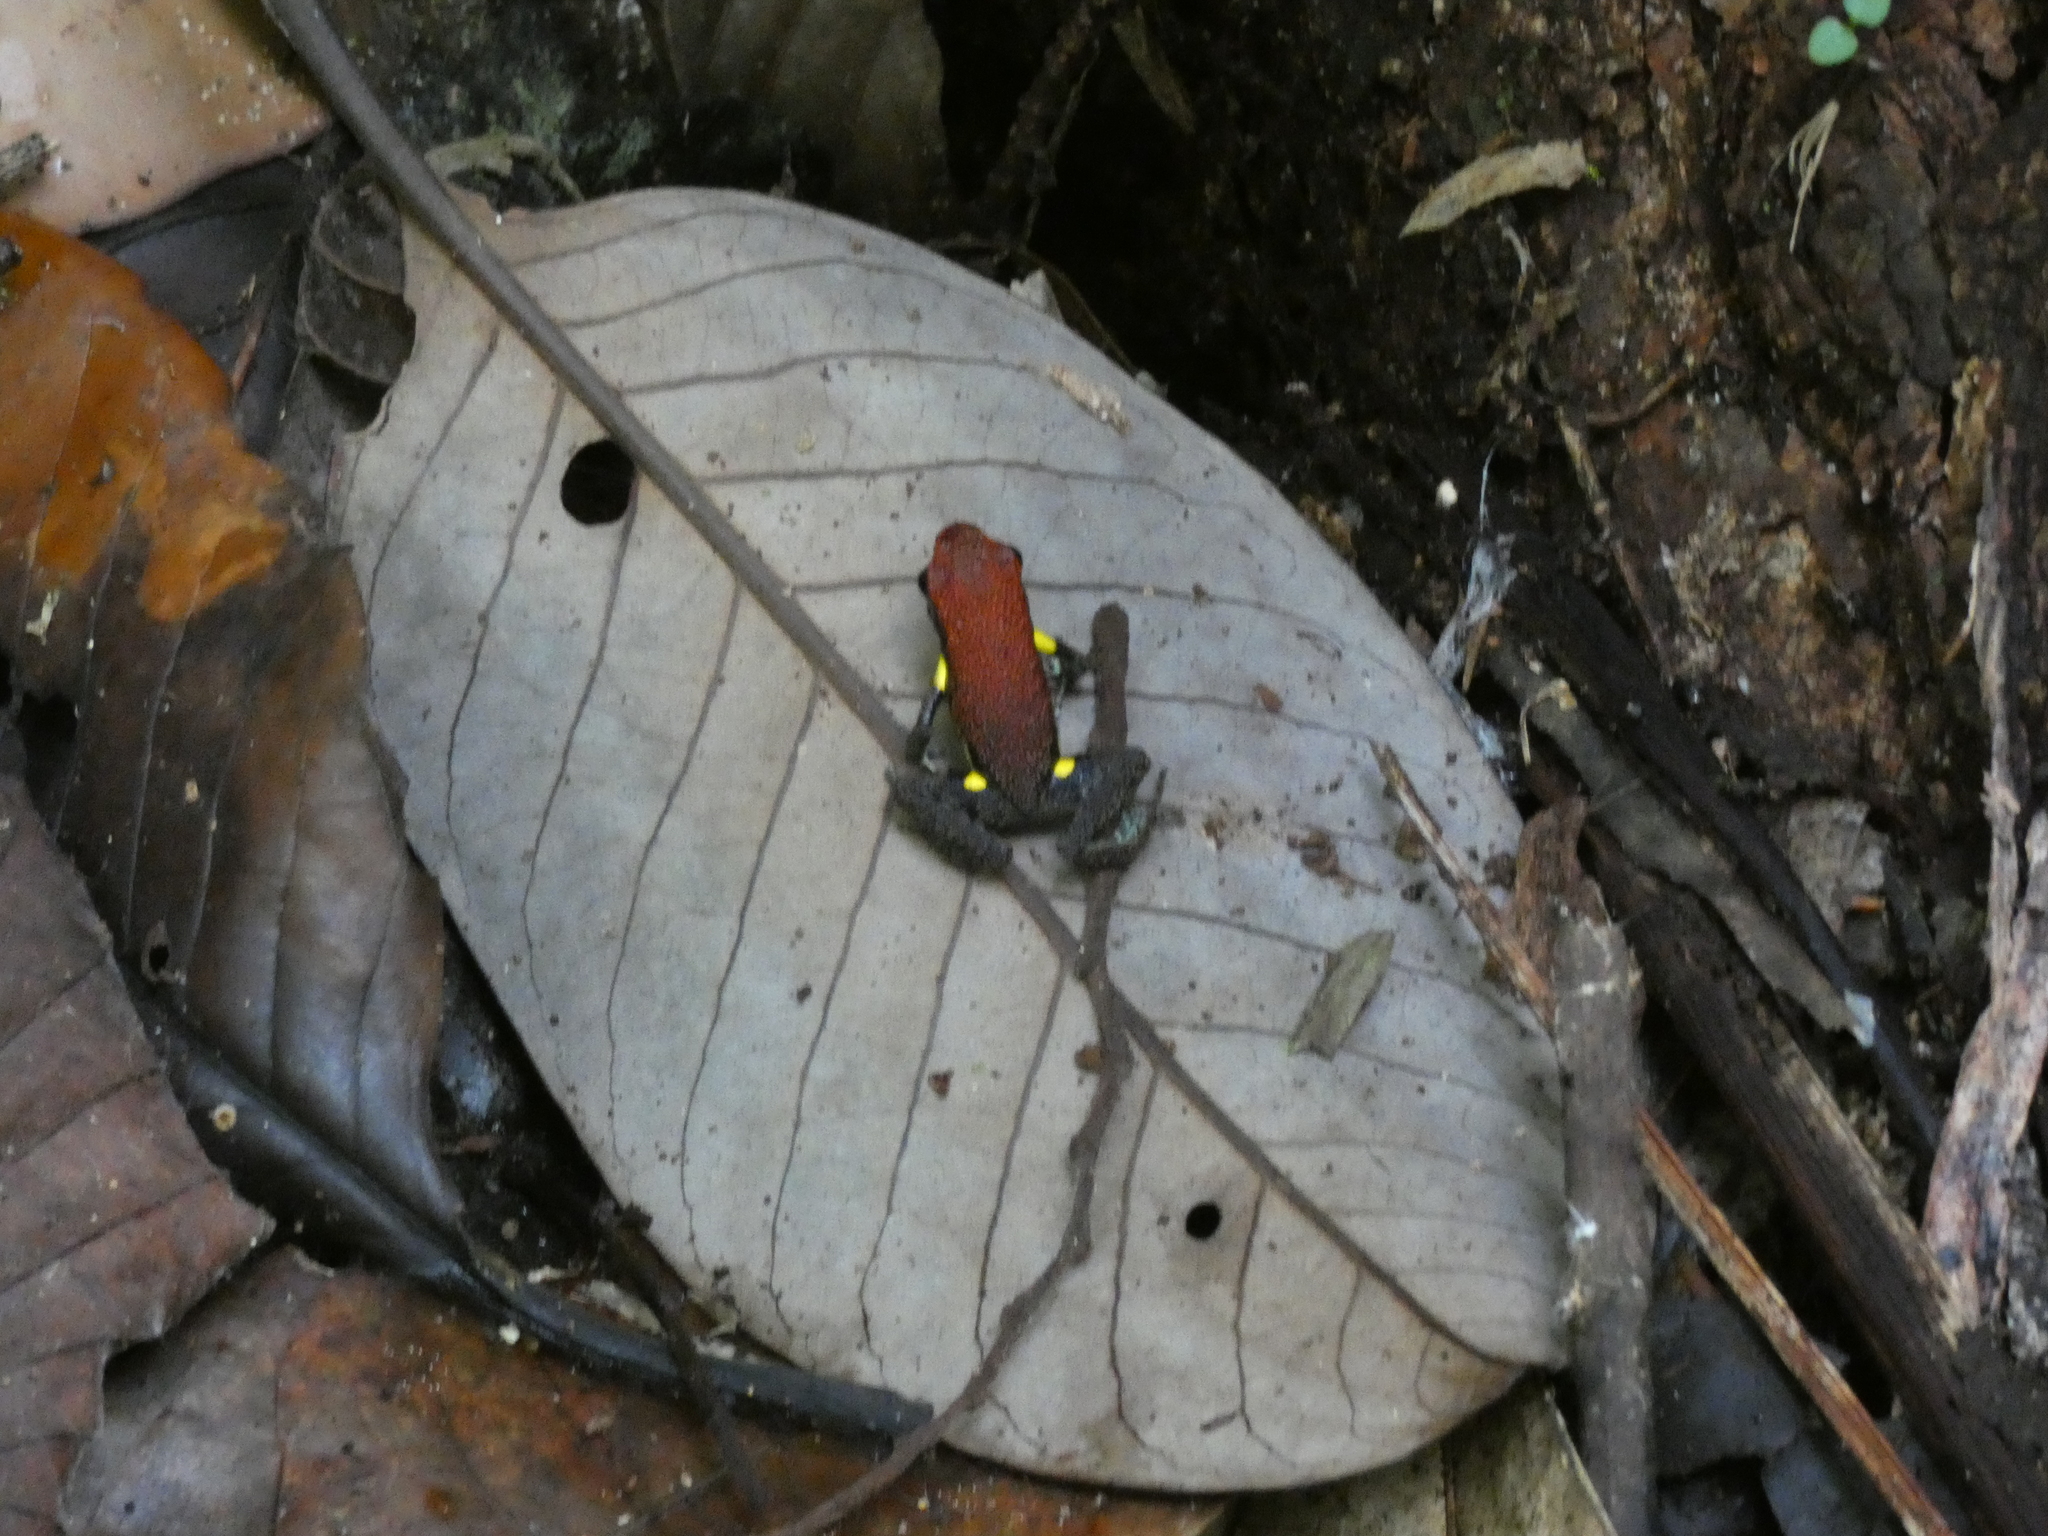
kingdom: Animalia
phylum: Chordata
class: Amphibia
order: Anura
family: Dendrobatidae
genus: Ameerega
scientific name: Ameerega bilinguis
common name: Ecuadorean poison frog
